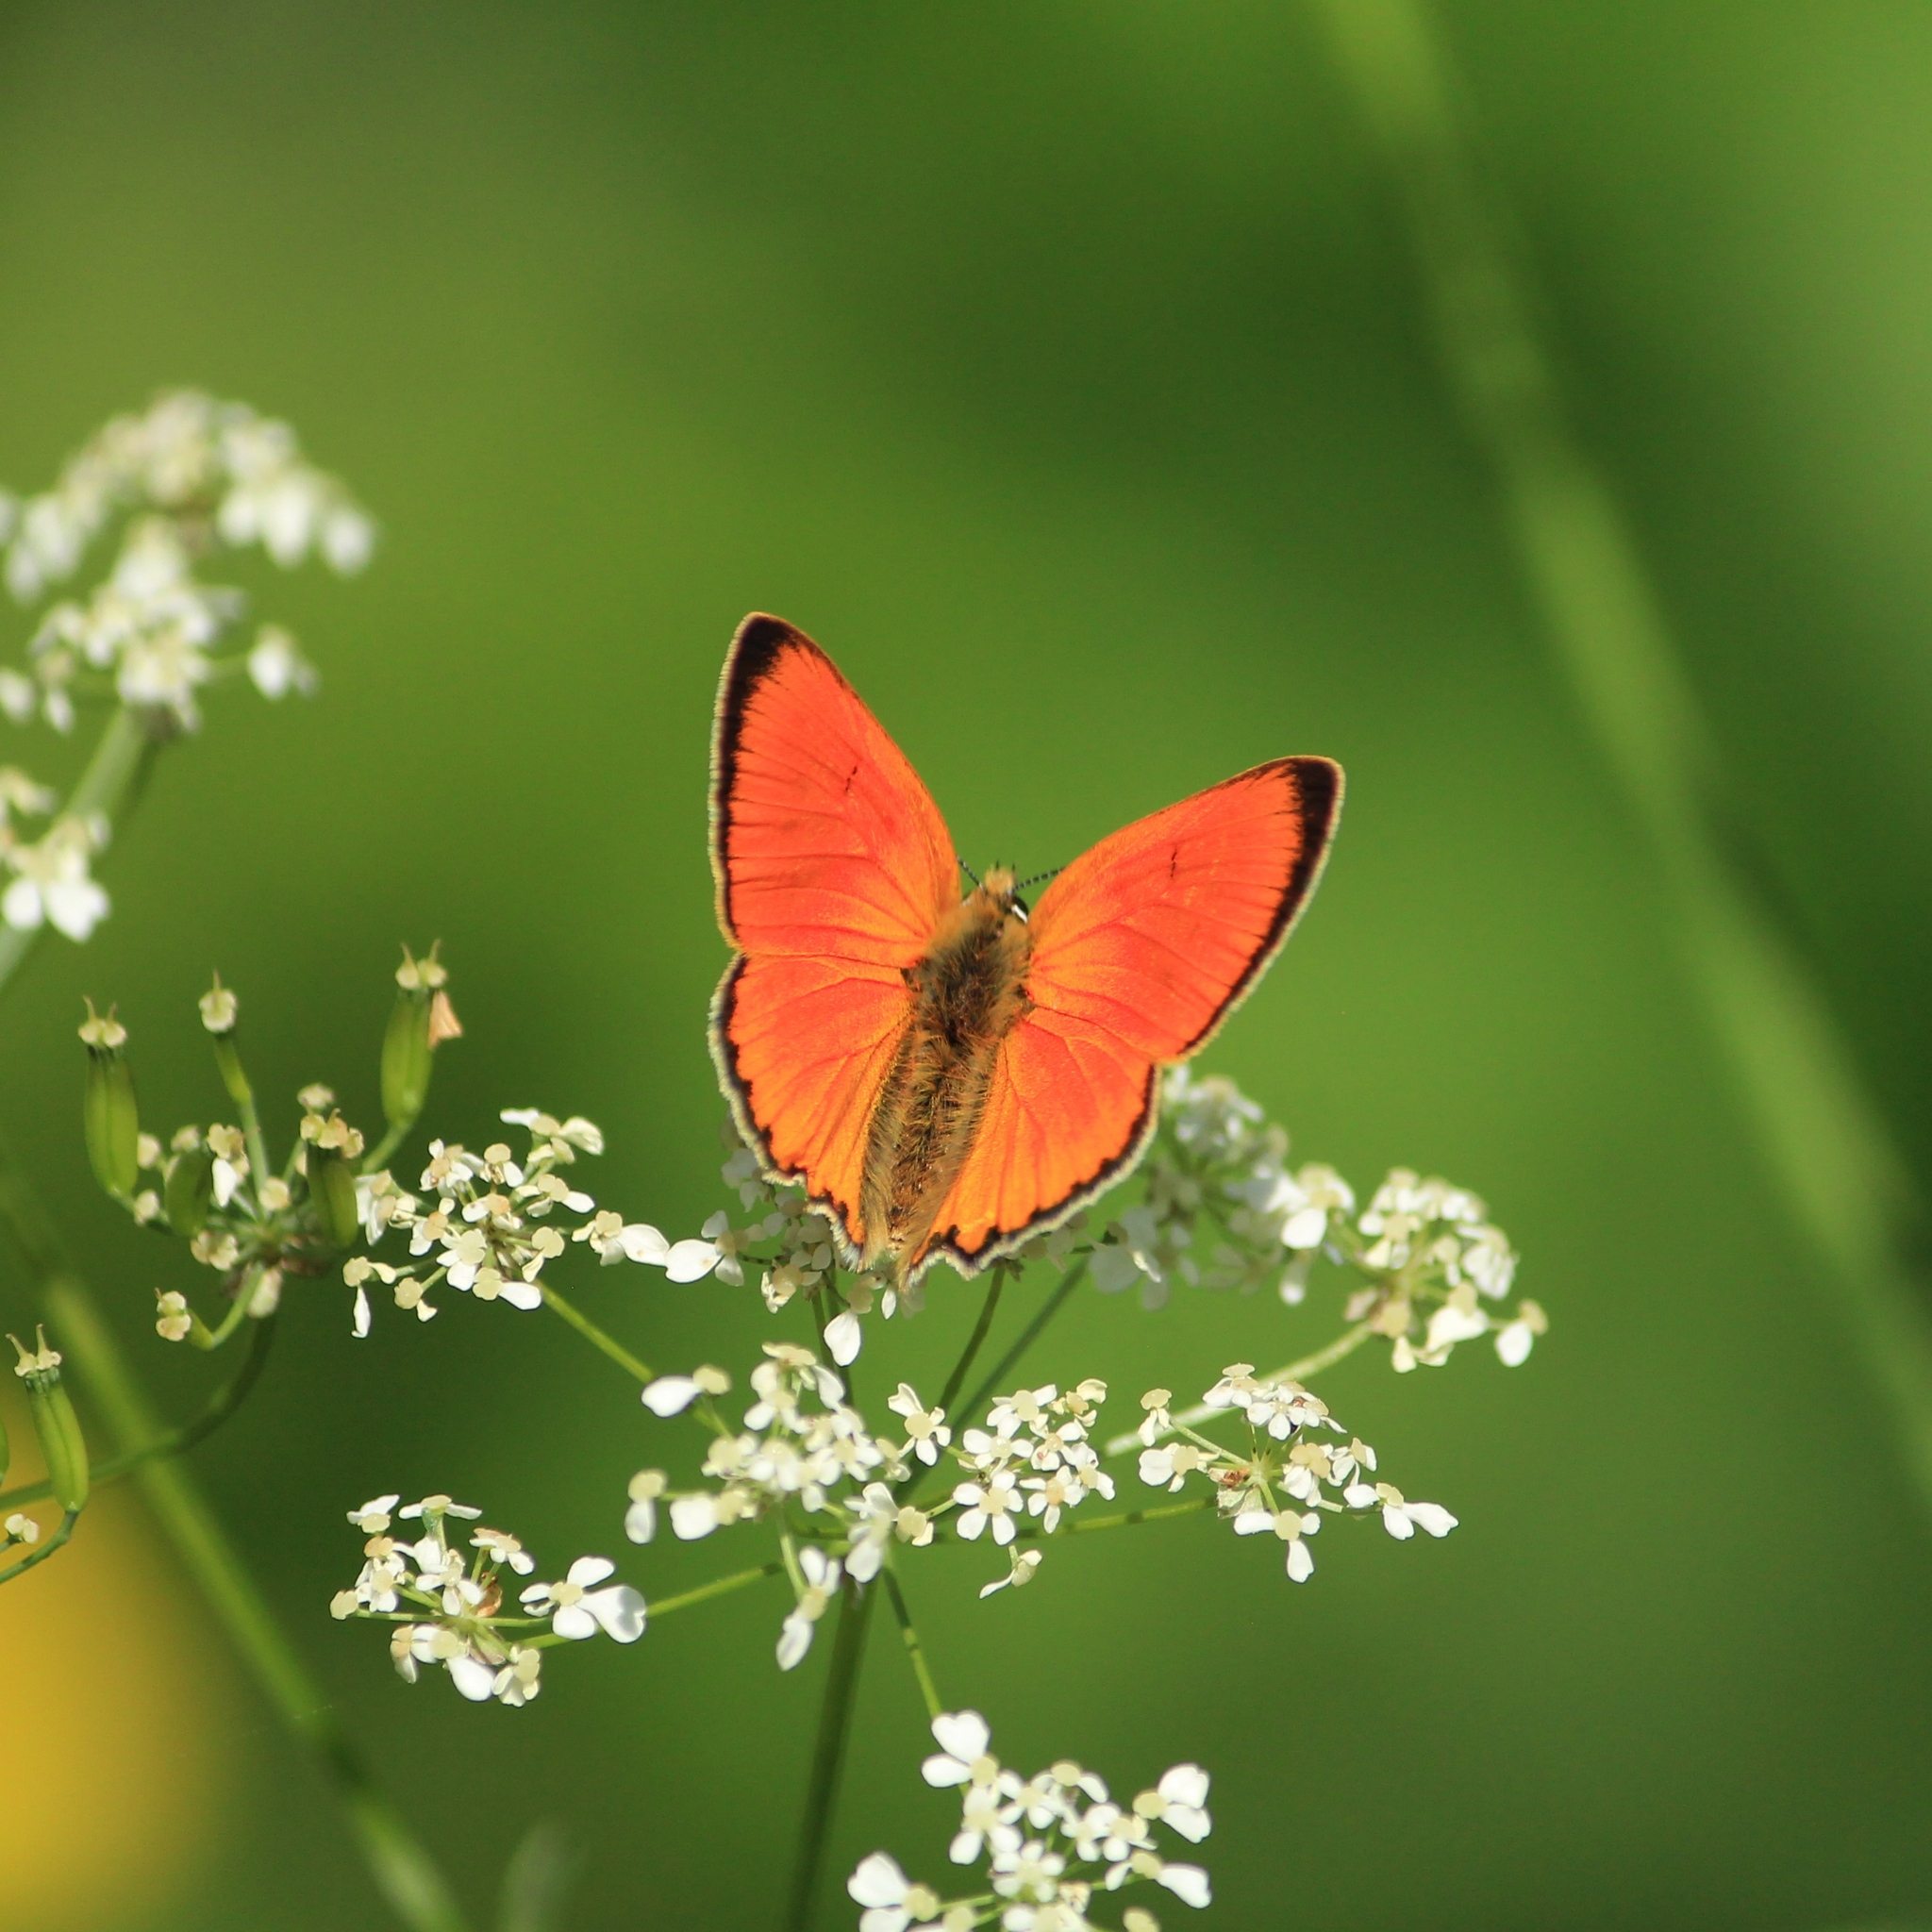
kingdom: Animalia
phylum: Arthropoda
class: Insecta
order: Lepidoptera
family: Lycaenidae
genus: Lycaena
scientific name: Lycaena virgaureae
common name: Scarce copper
